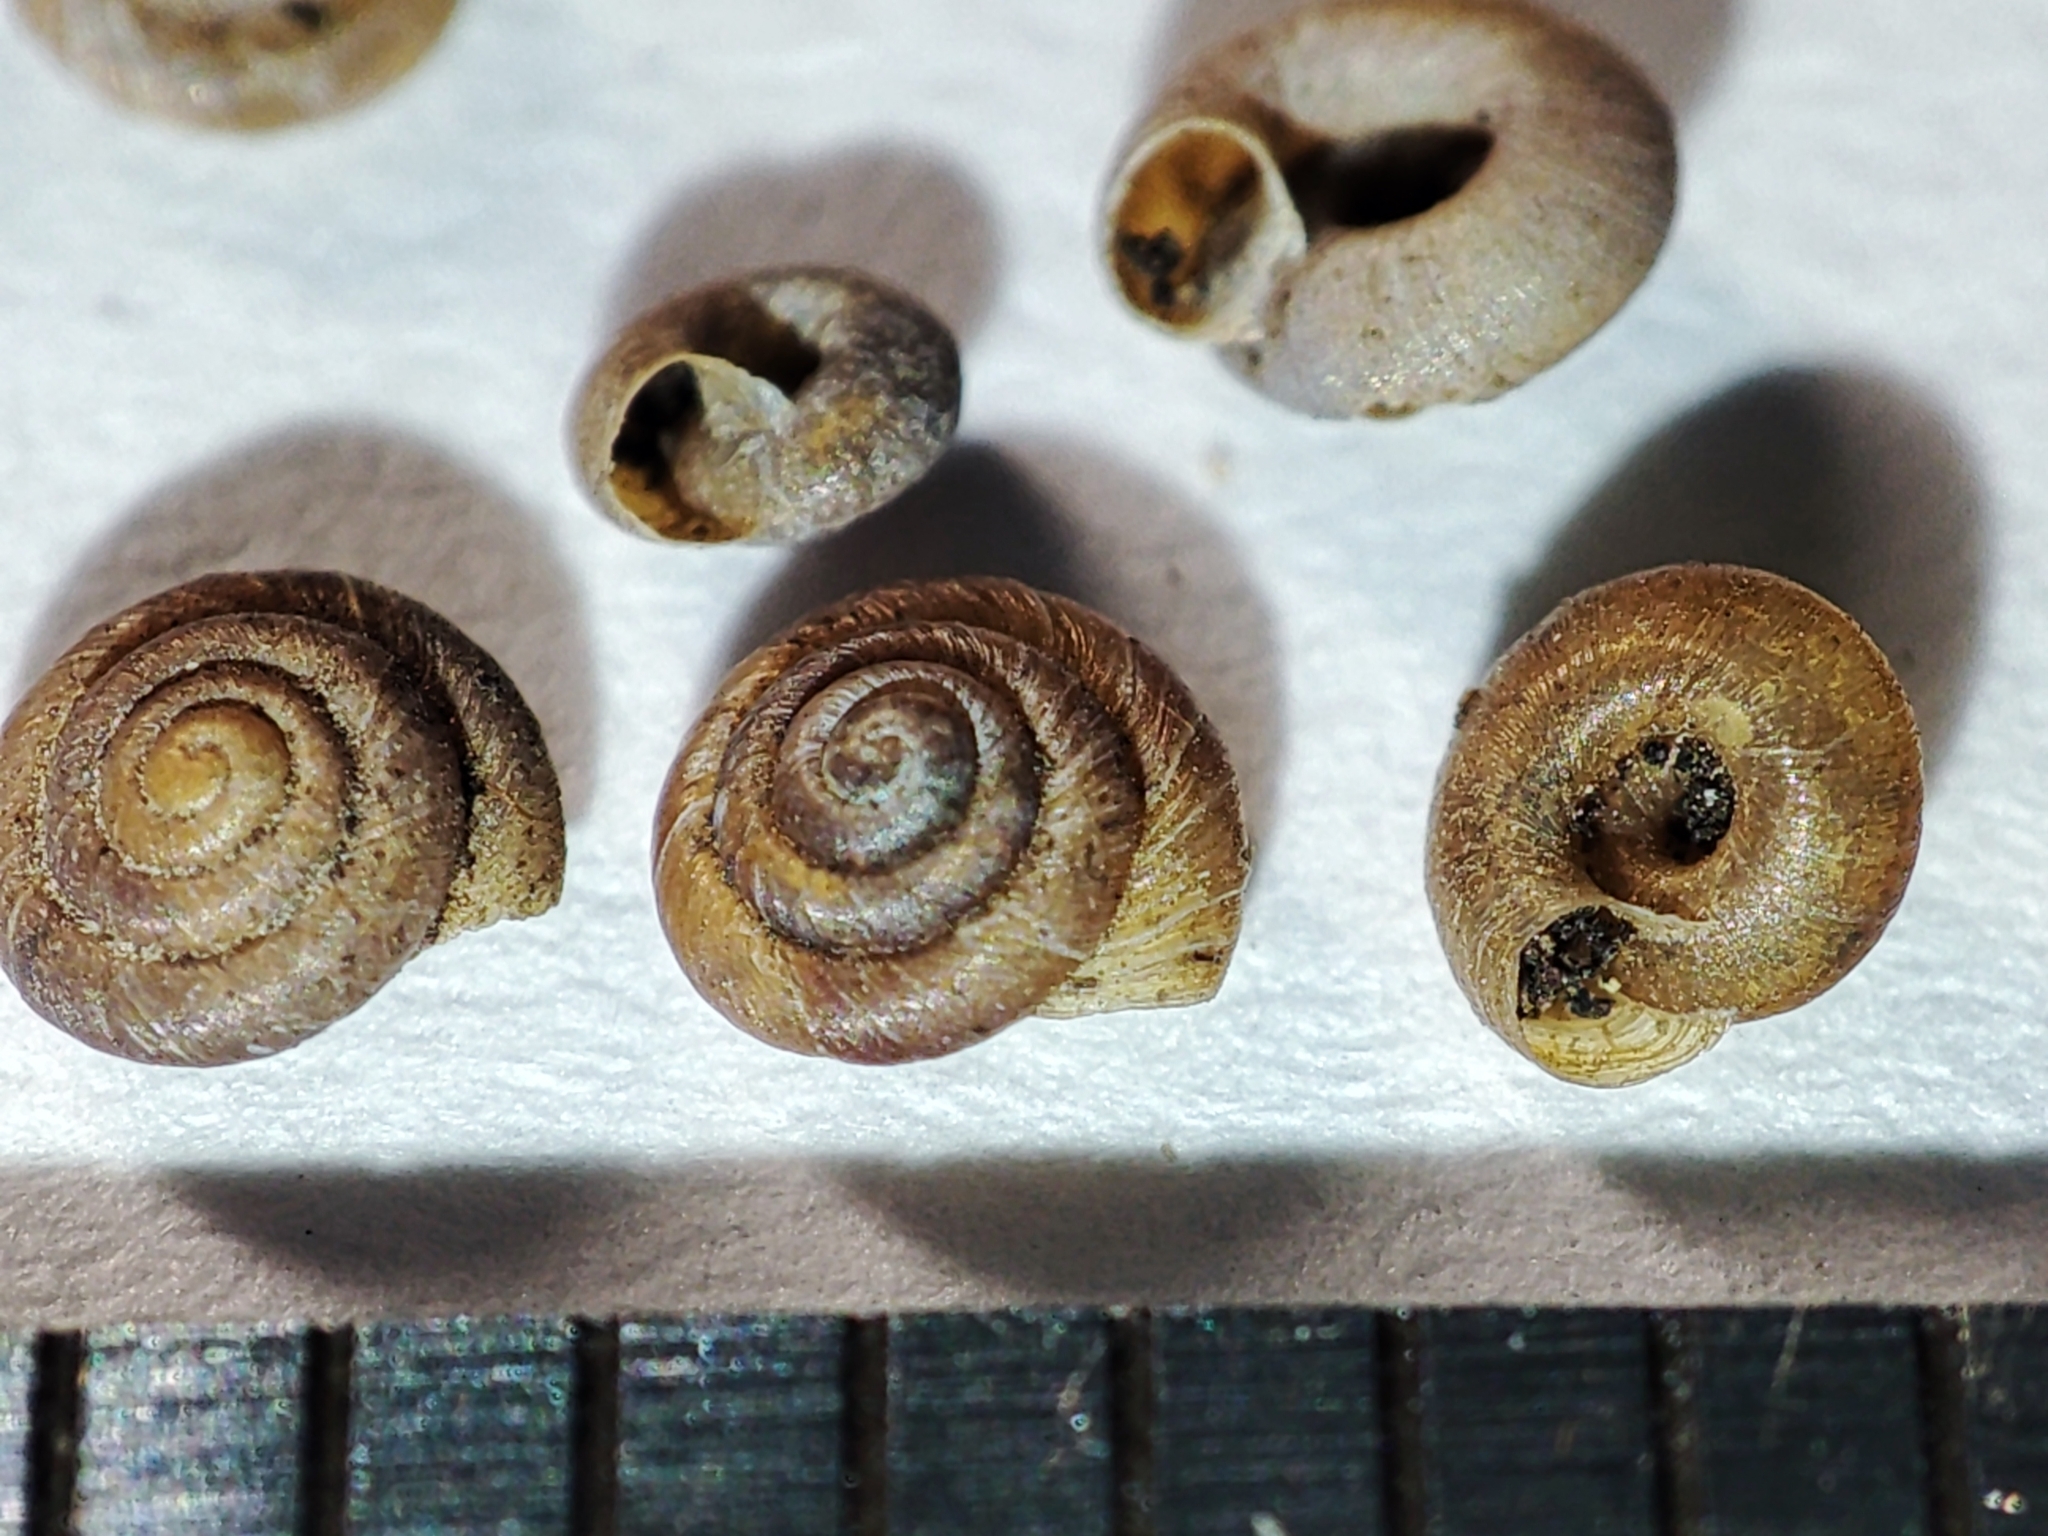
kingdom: Animalia
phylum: Mollusca
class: Gastropoda
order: Stylommatophora
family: Pyramidulidae
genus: Pyramidula
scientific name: Pyramidula pusilla
